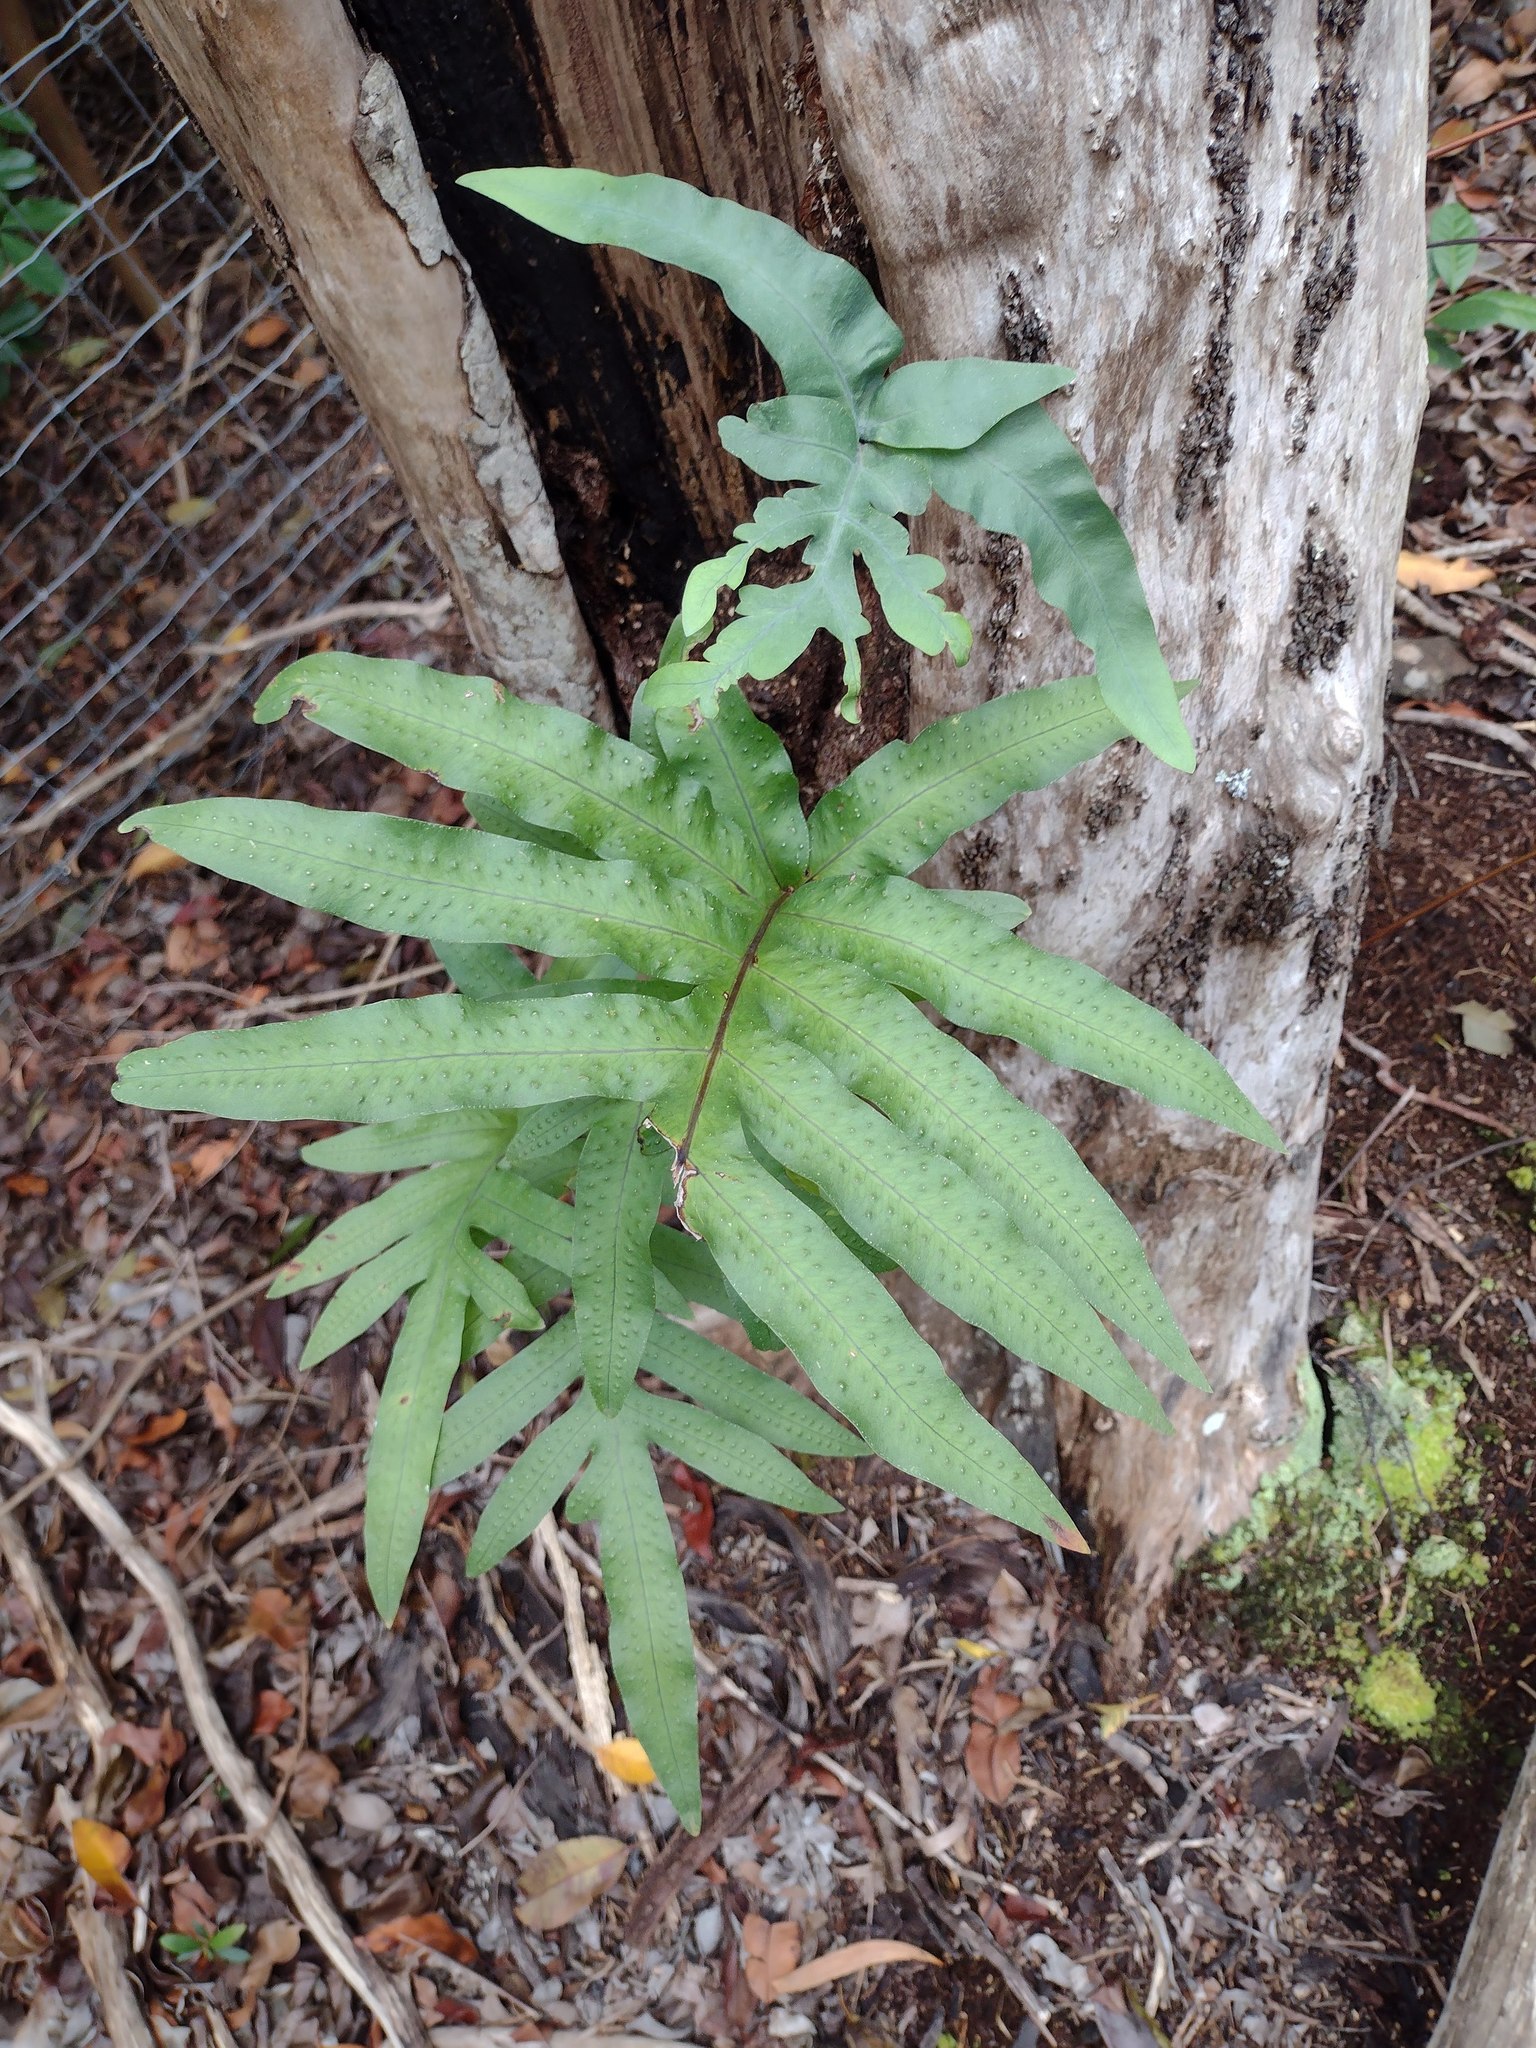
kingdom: Plantae
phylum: Tracheophyta
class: Polypodiopsida
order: Polypodiales
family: Polypodiaceae
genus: Phlebodium
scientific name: Phlebodium aureum
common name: Gold-foot fern
